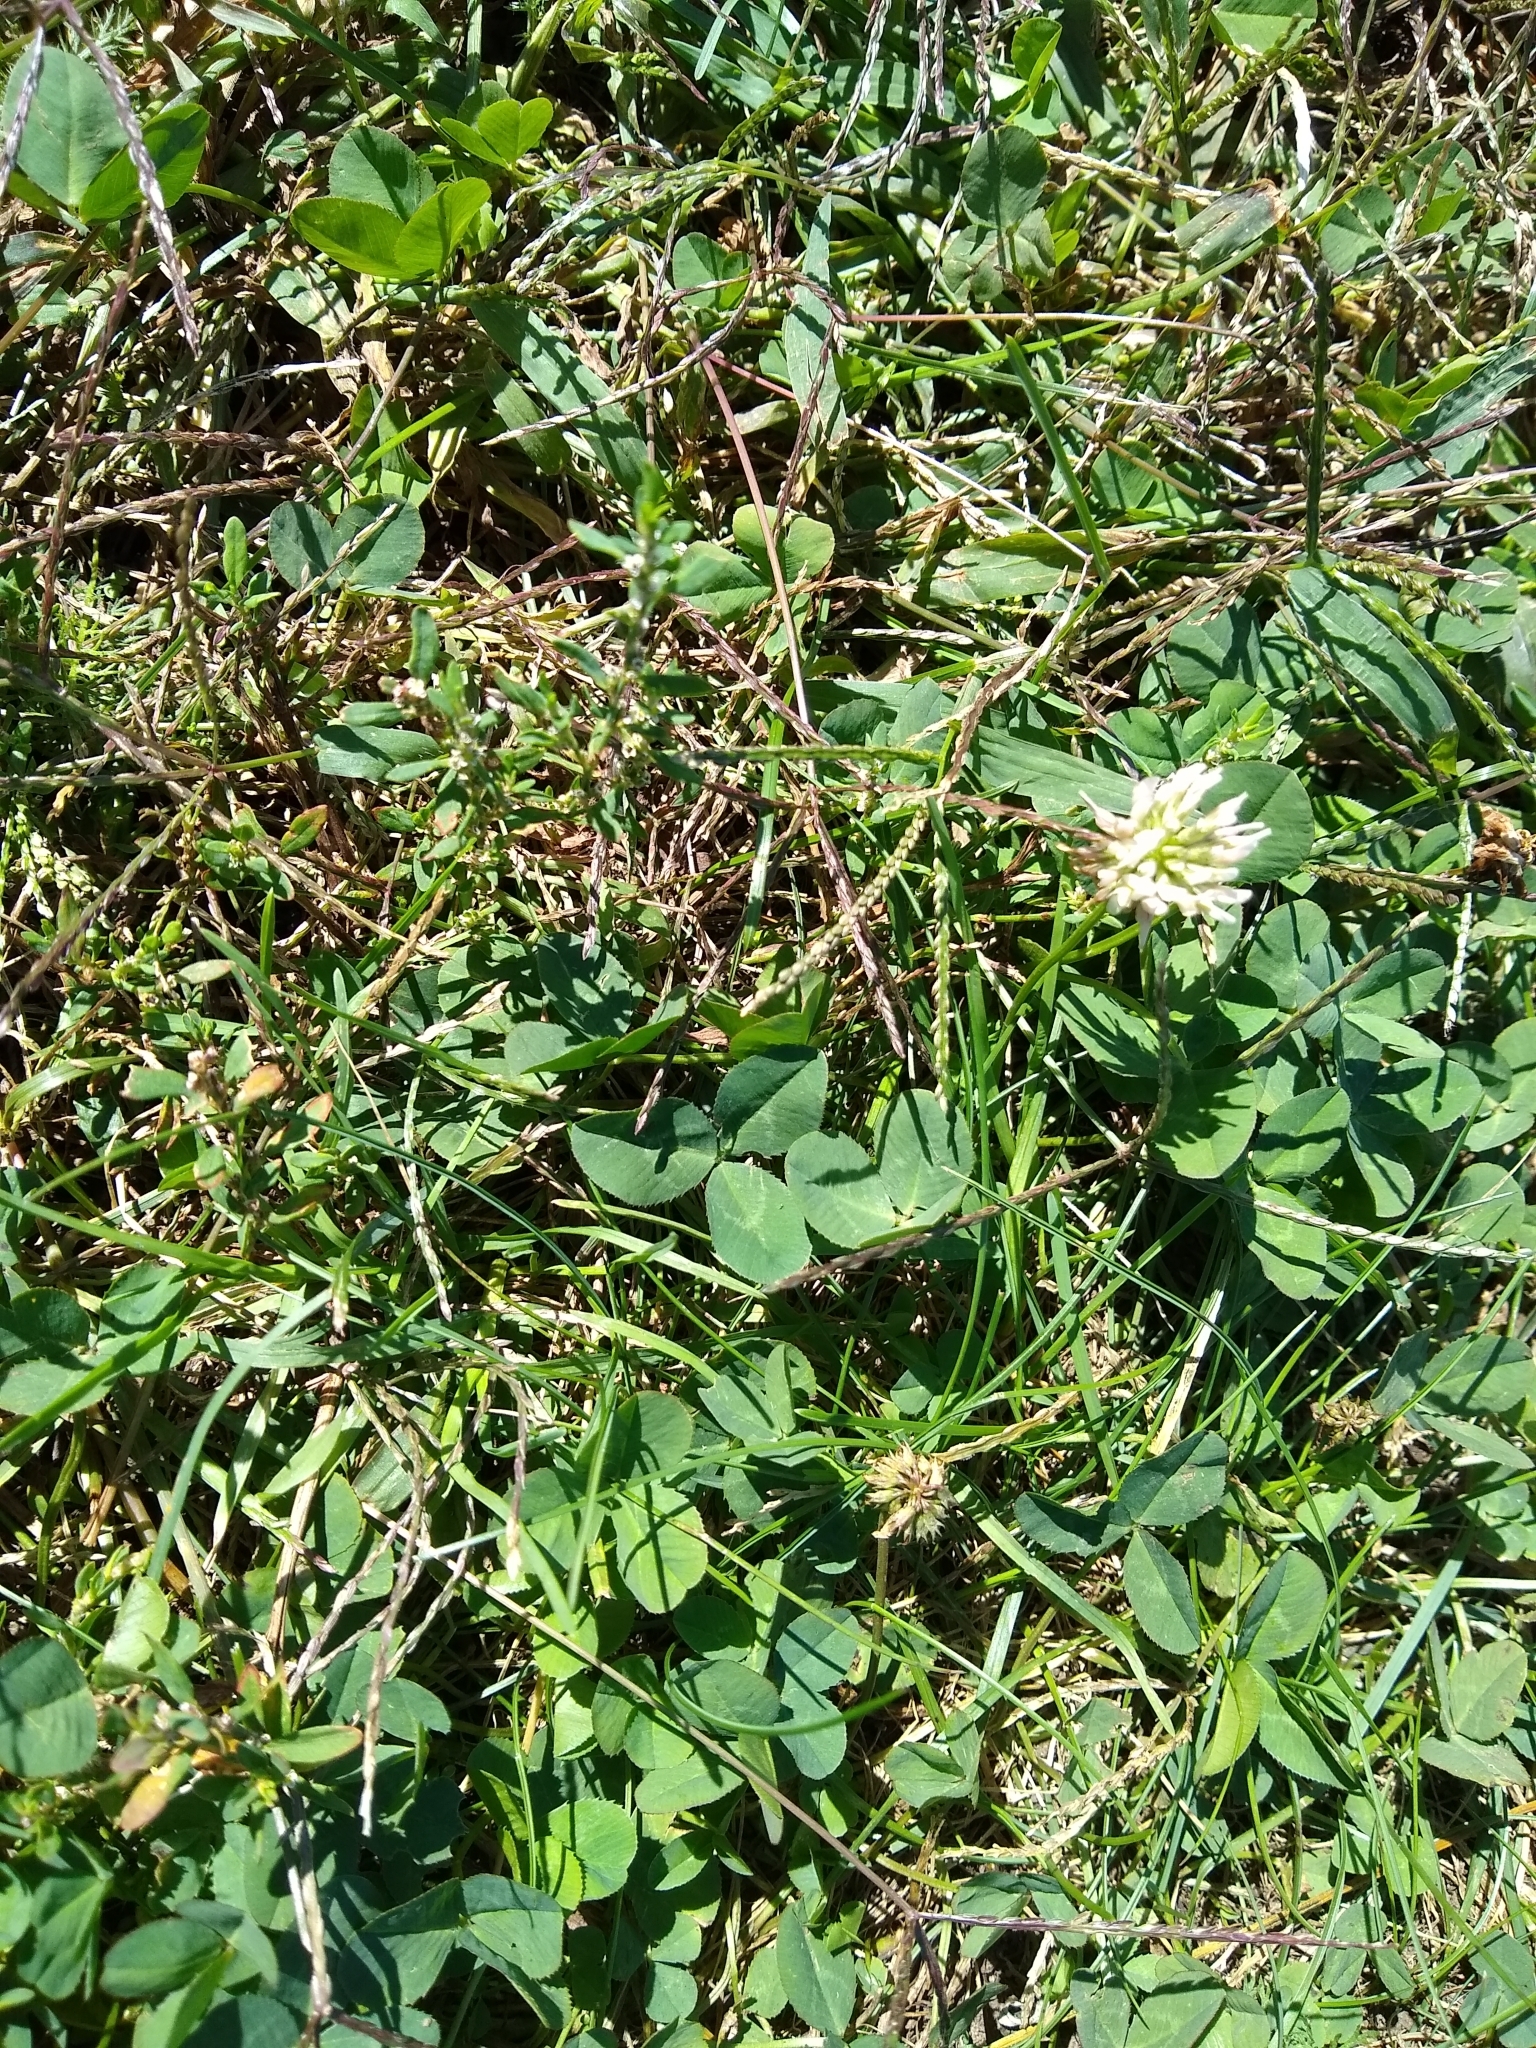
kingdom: Plantae
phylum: Tracheophyta
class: Magnoliopsida
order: Fabales
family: Fabaceae
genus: Trifolium
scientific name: Trifolium repens
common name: White clover
